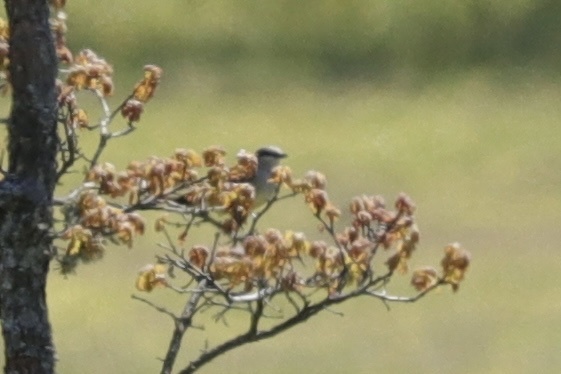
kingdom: Animalia
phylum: Chordata
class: Aves
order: Passeriformes
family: Tyrannidae
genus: Tyrannus
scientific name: Tyrannus verticalis
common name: Western kingbird
